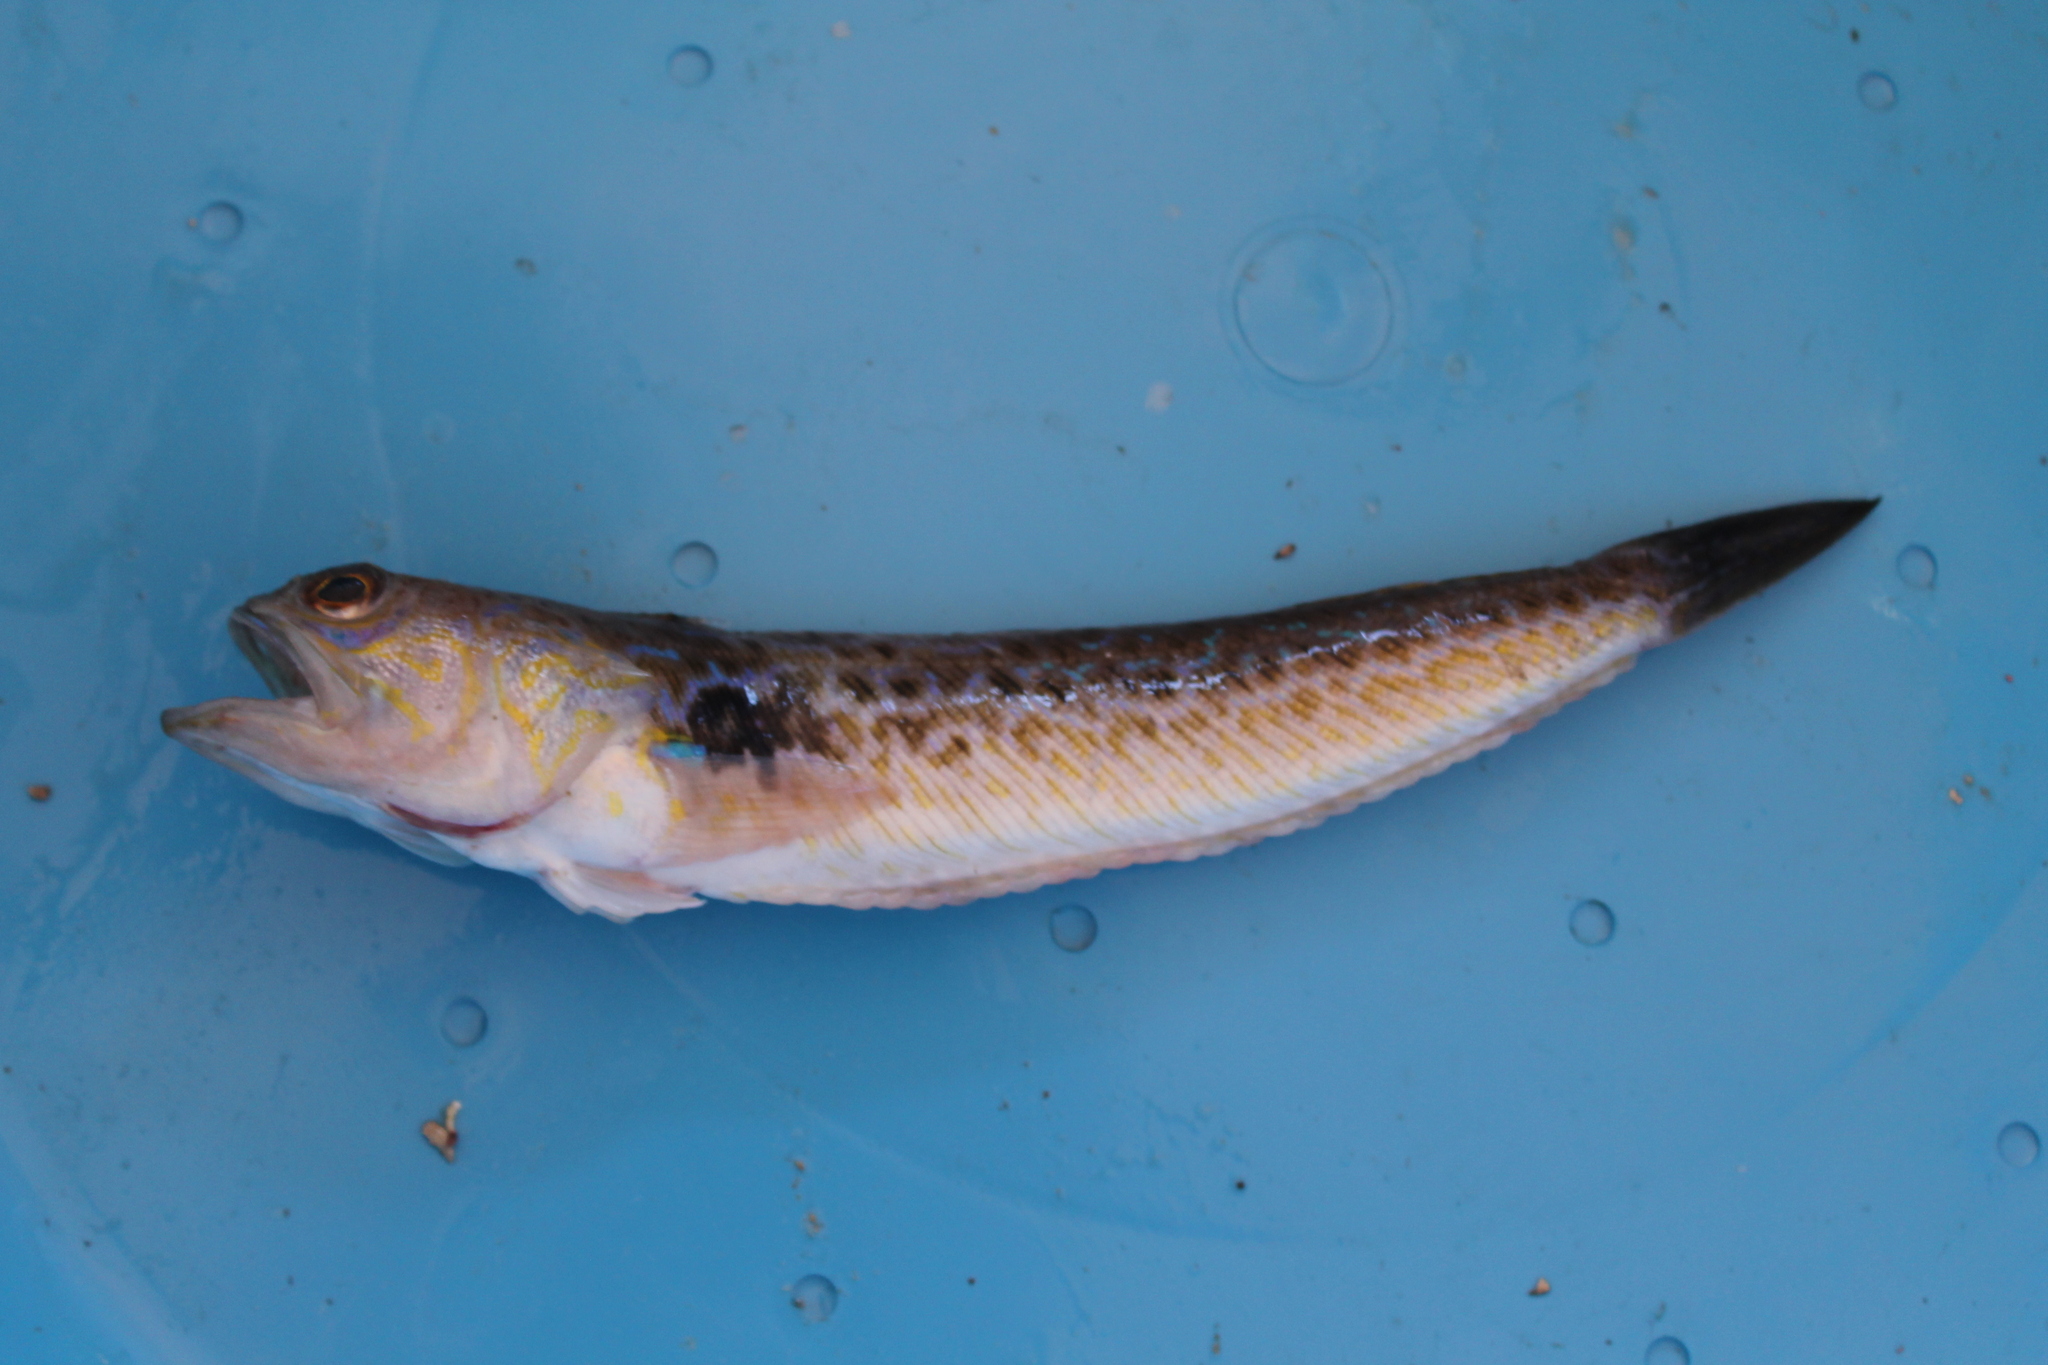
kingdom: Animalia
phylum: Chordata
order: Perciformes
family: Trachinidae
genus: Trachinus
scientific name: Trachinus draco
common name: Greater weever
